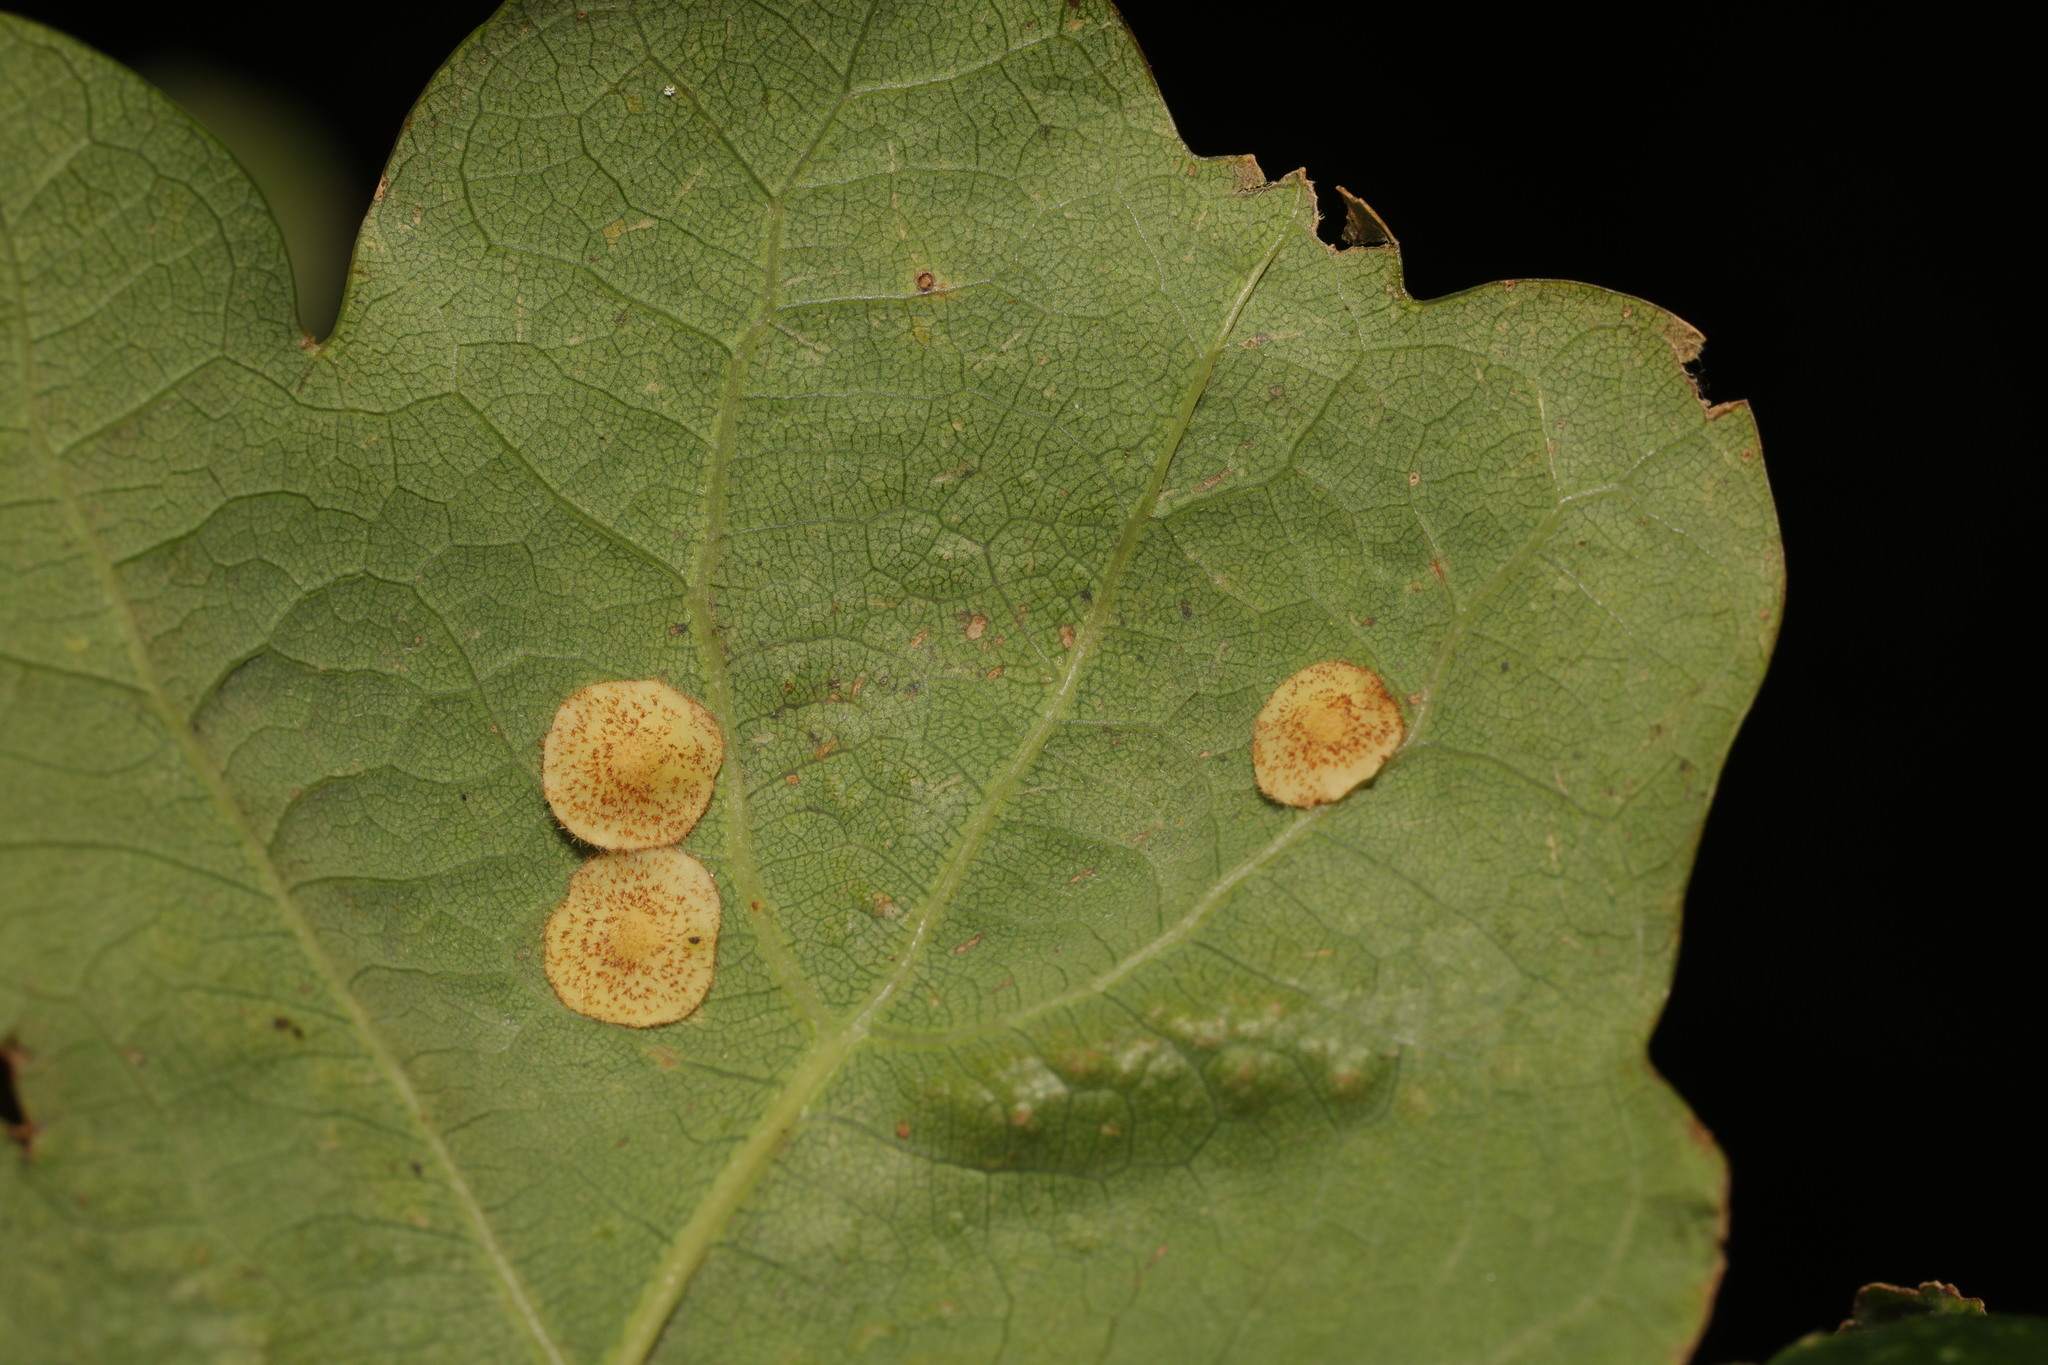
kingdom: Animalia
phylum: Arthropoda
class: Insecta
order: Hymenoptera
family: Cynipidae
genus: Neuroterus
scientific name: Neuroterus quercusbaccarum
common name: Common spangle gall
